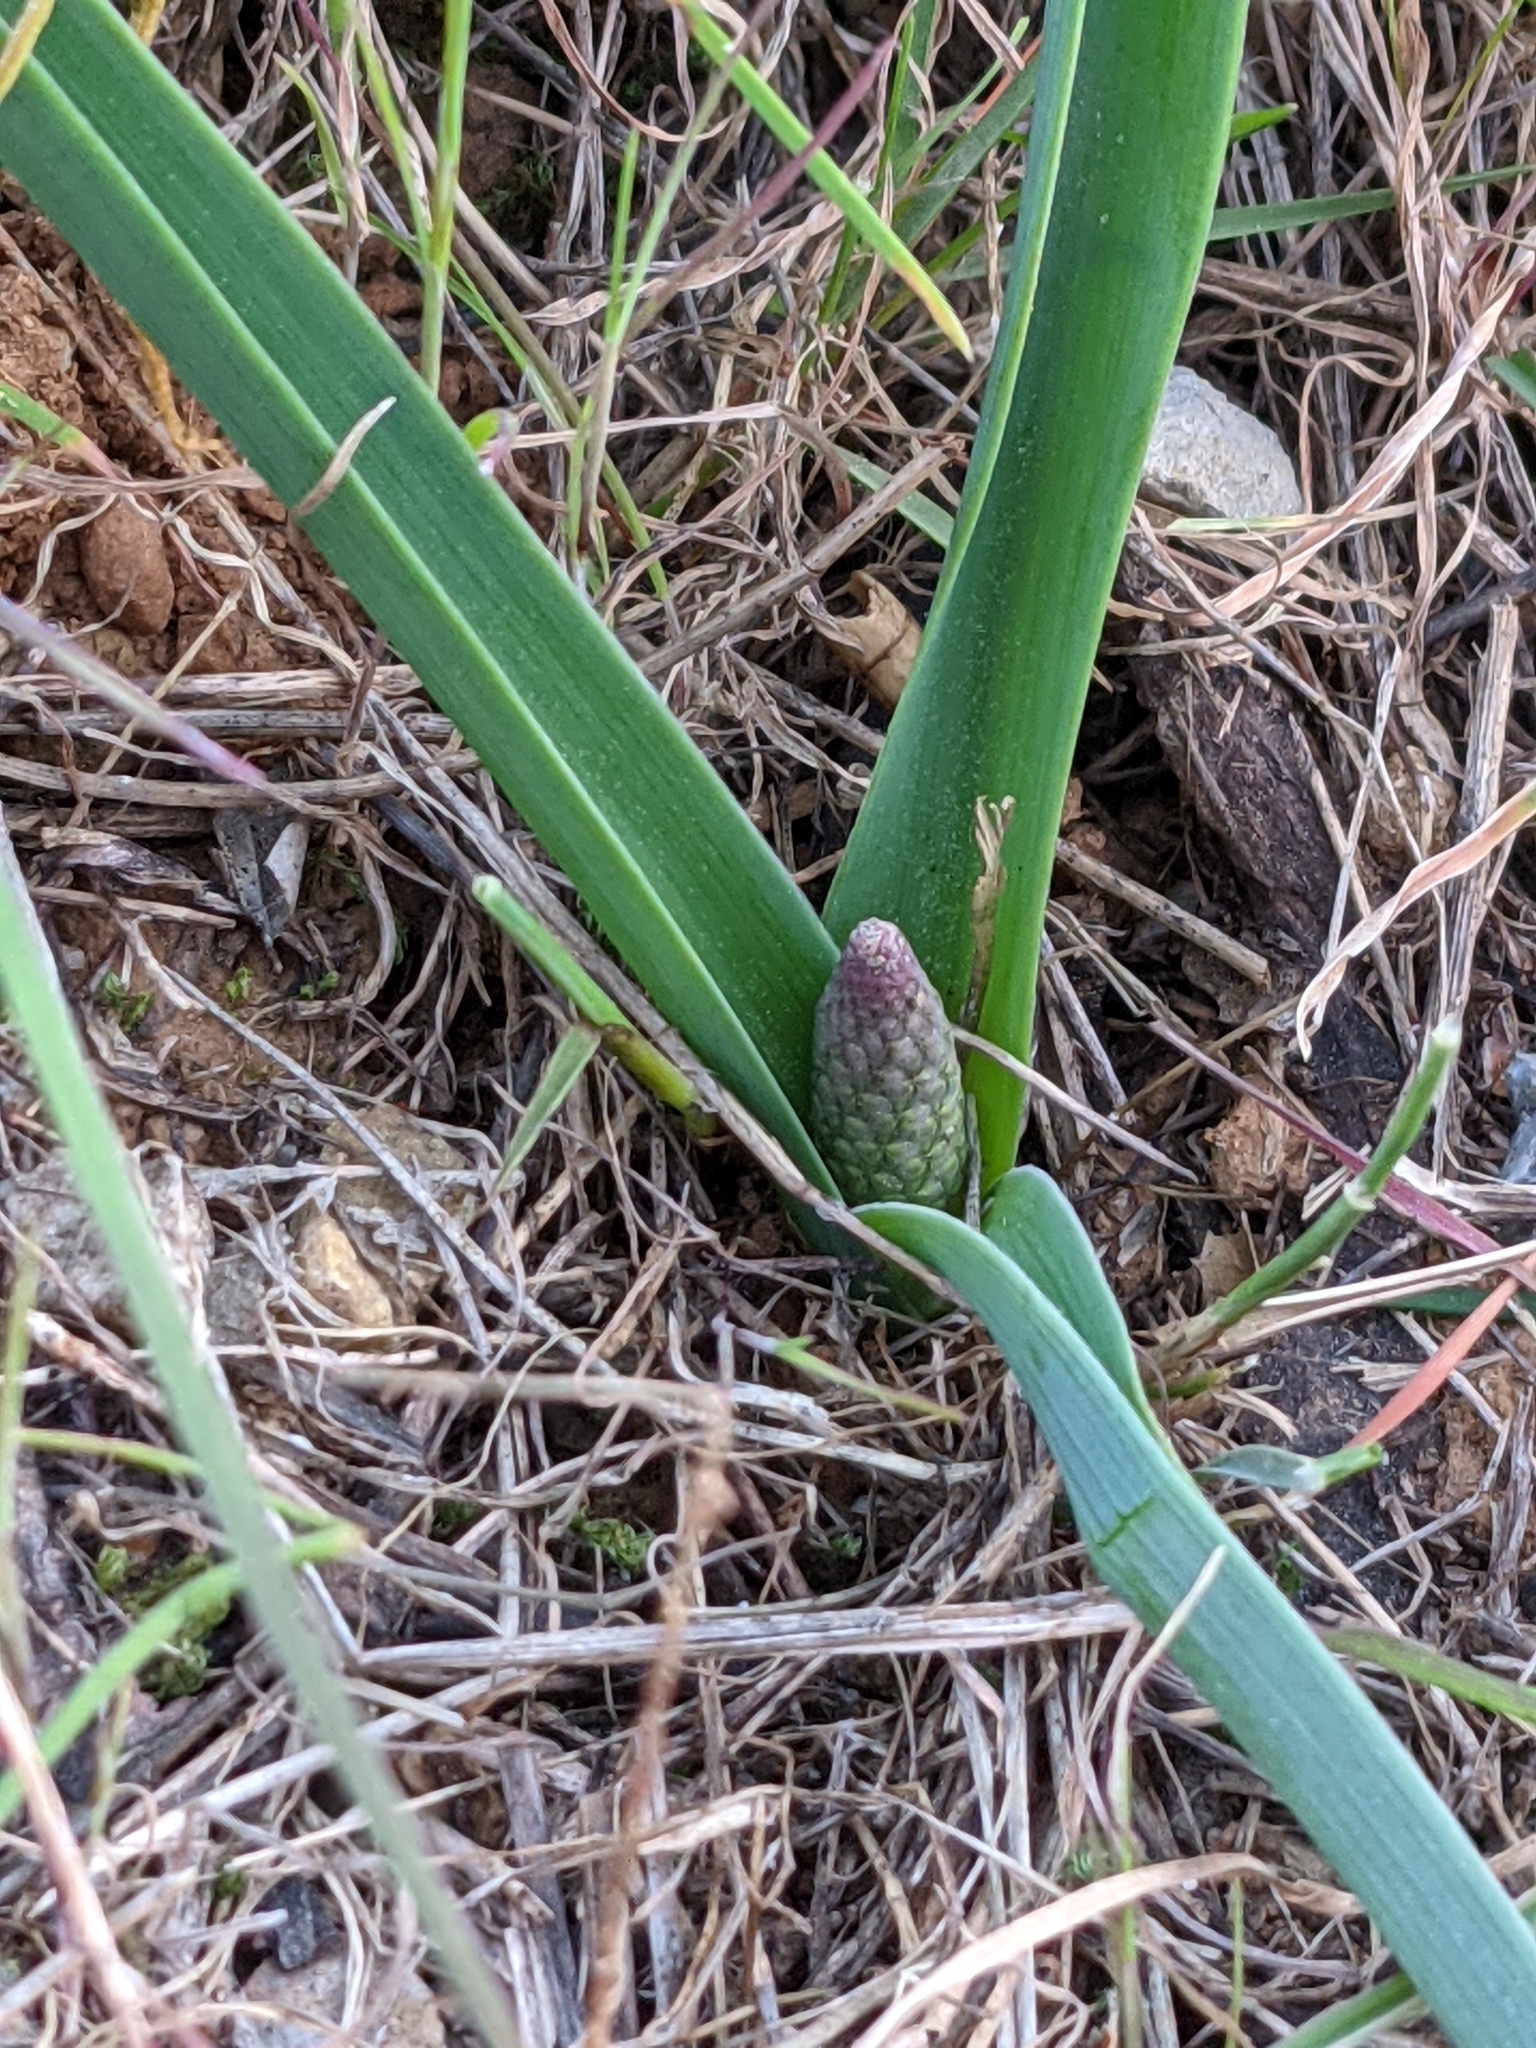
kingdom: Plantae
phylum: Tracheophyta
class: Liliopsida
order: Asparagales
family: Asparagaceae
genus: Muscari
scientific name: Muscari comosum
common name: Tassel hyacinth
